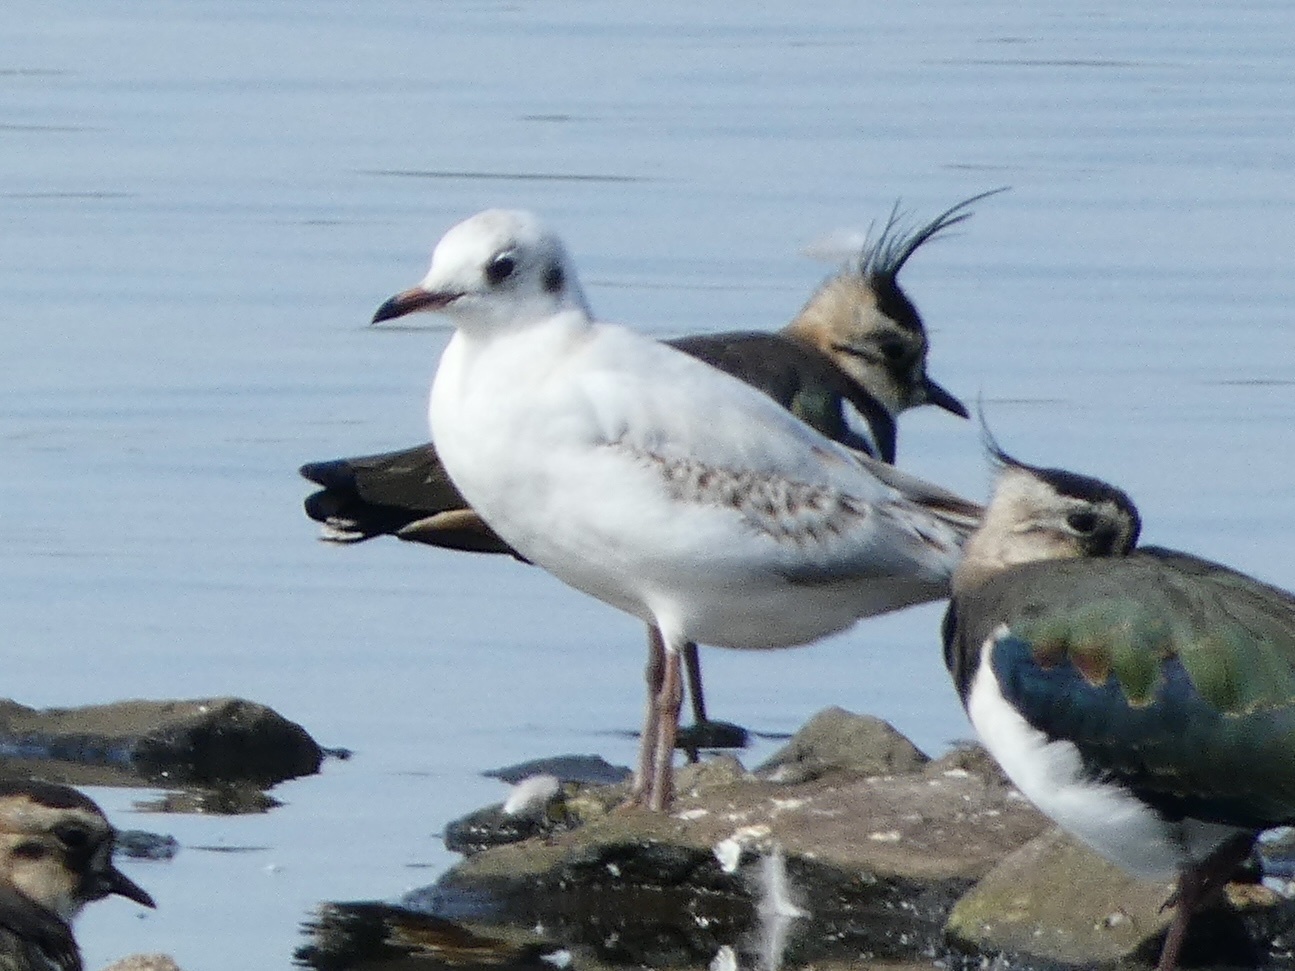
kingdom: Animalia
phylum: Chordata
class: Aves
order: Charadriiformes
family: Laridae
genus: Chroicocephalus
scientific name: Chroicocephalus ridibundus
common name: Black-headed gull
